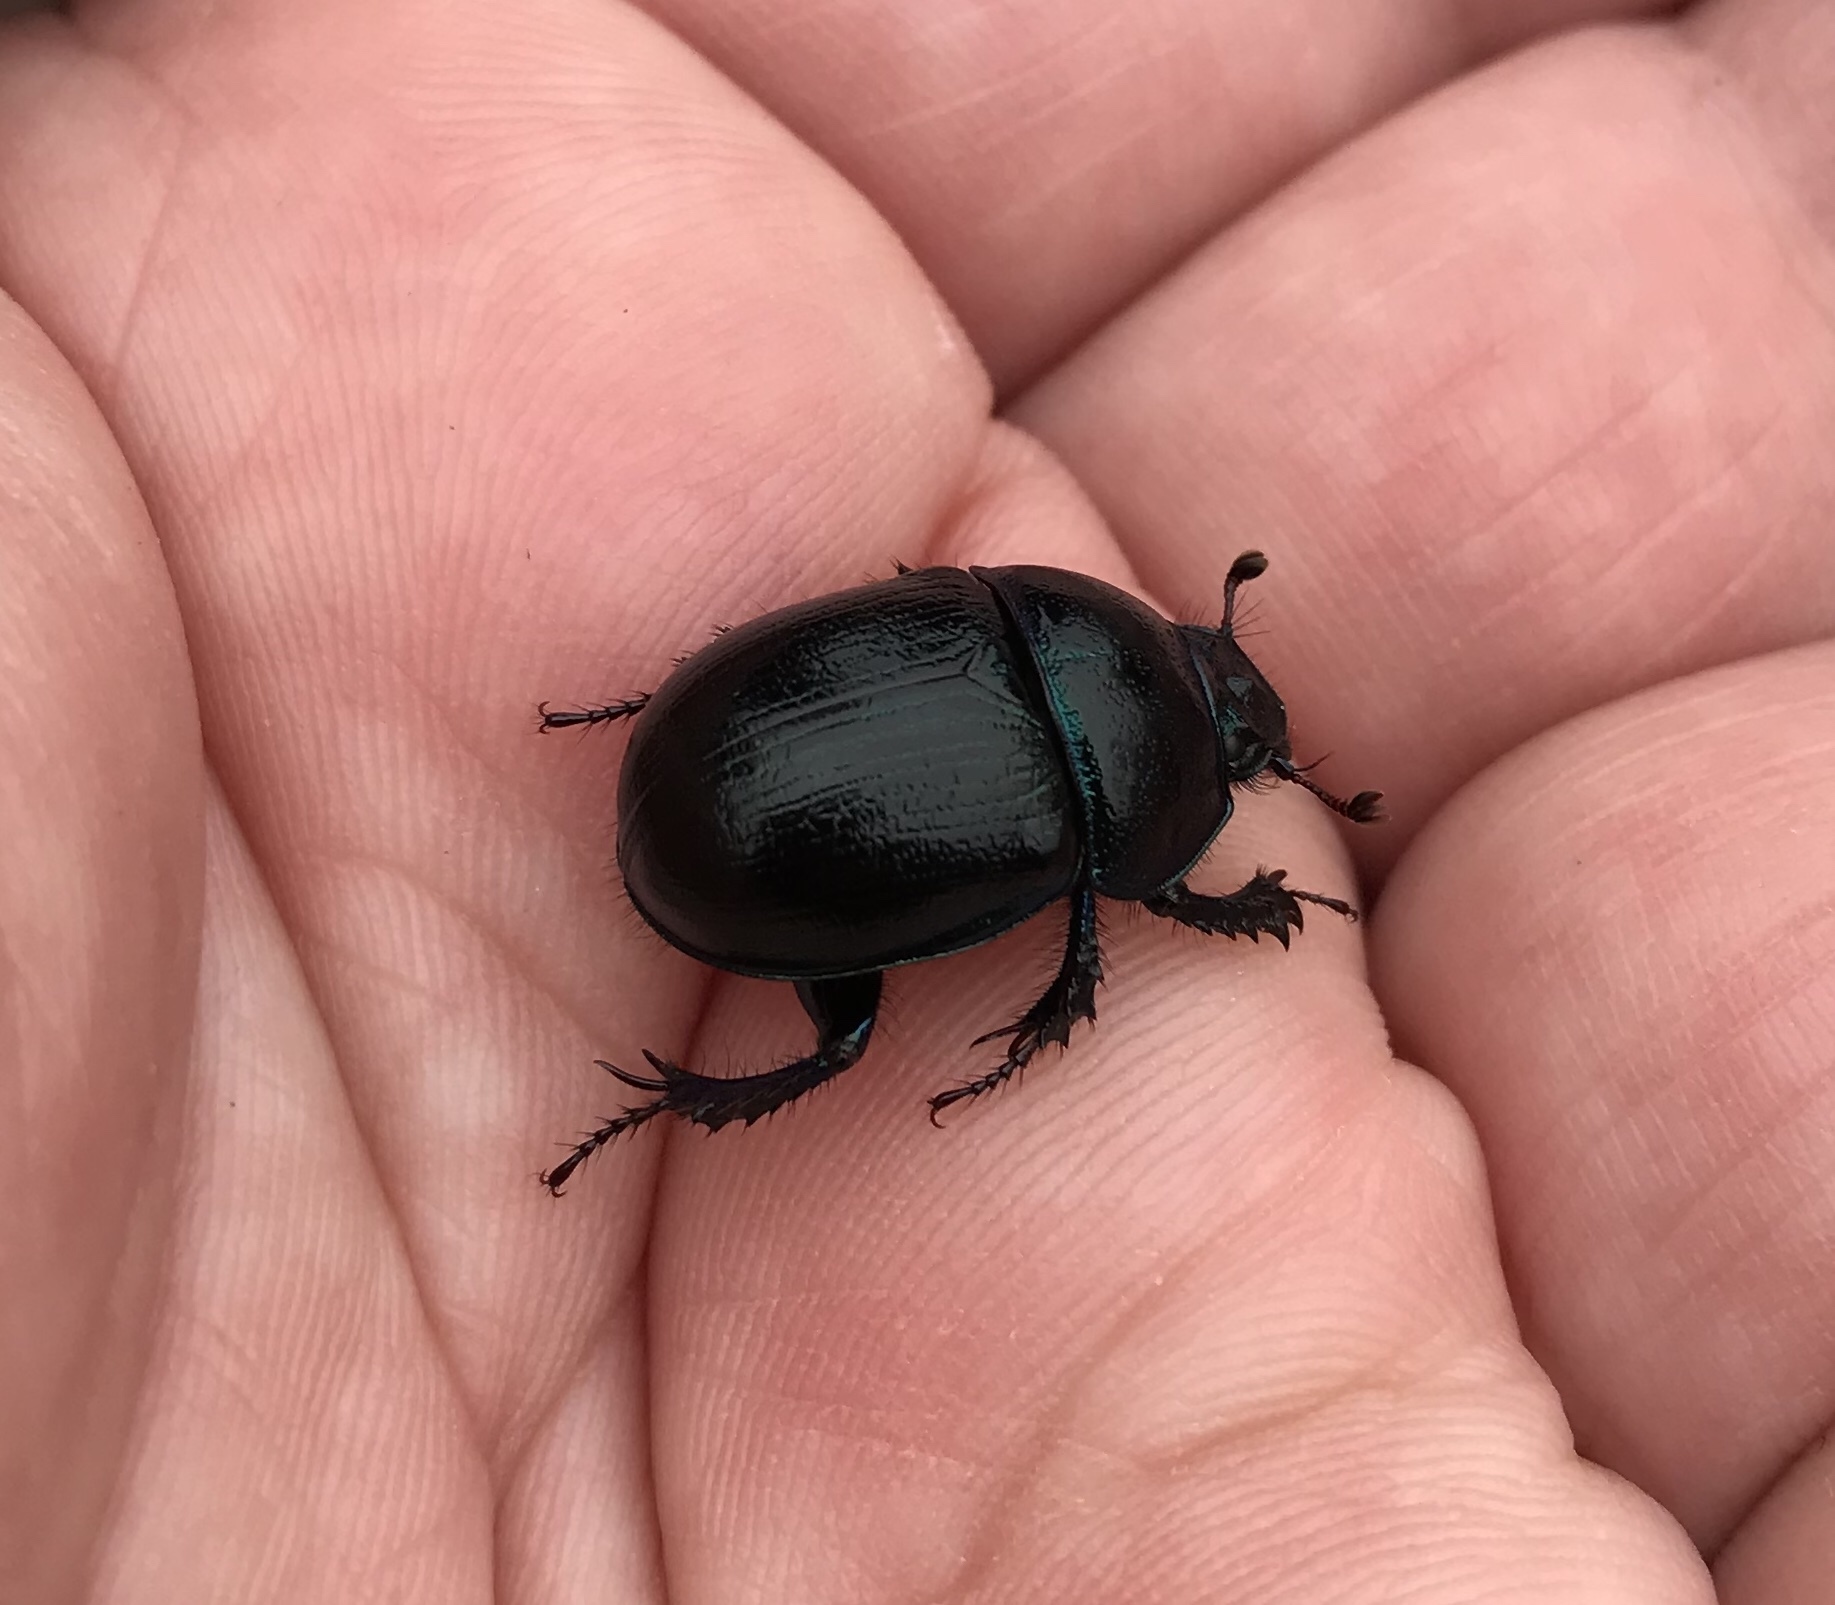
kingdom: Animalia
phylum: Arthropoda
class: Insecta
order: Coleoptera
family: Geotrupidae
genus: Anoplotrupes
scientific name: Anoplotrupes stercorosus
